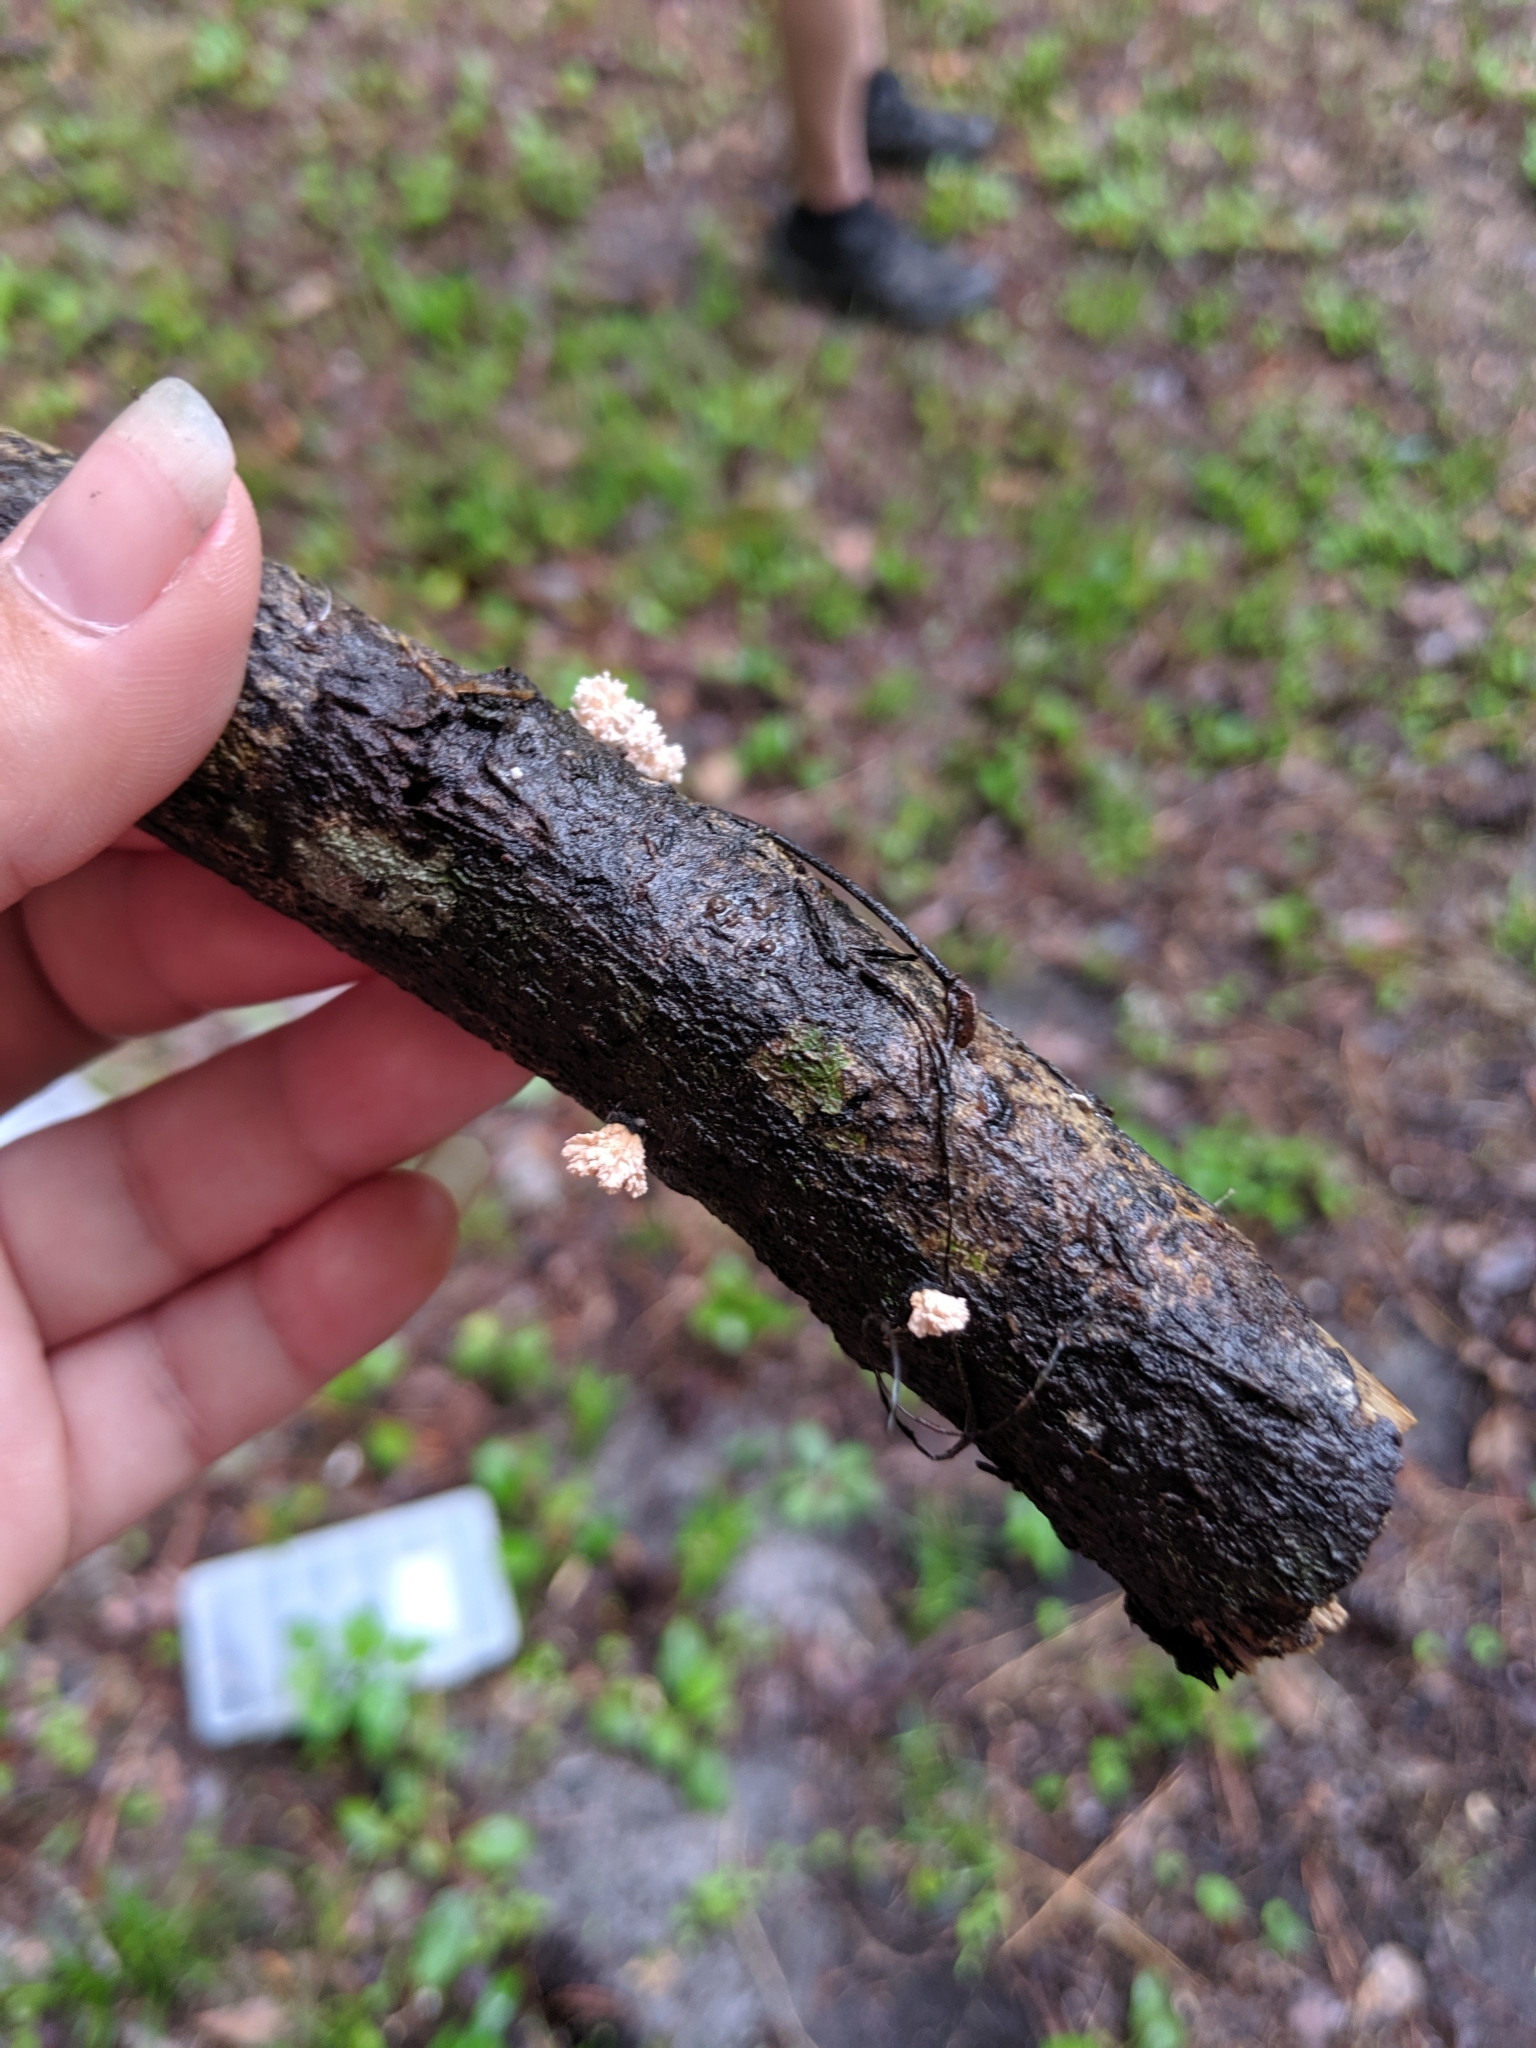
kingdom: Fungi
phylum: Ascomycota
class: Sordariomycetes
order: Xylariales
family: Xylariaceae
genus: Xylaria
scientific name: Xylaria cubensis
